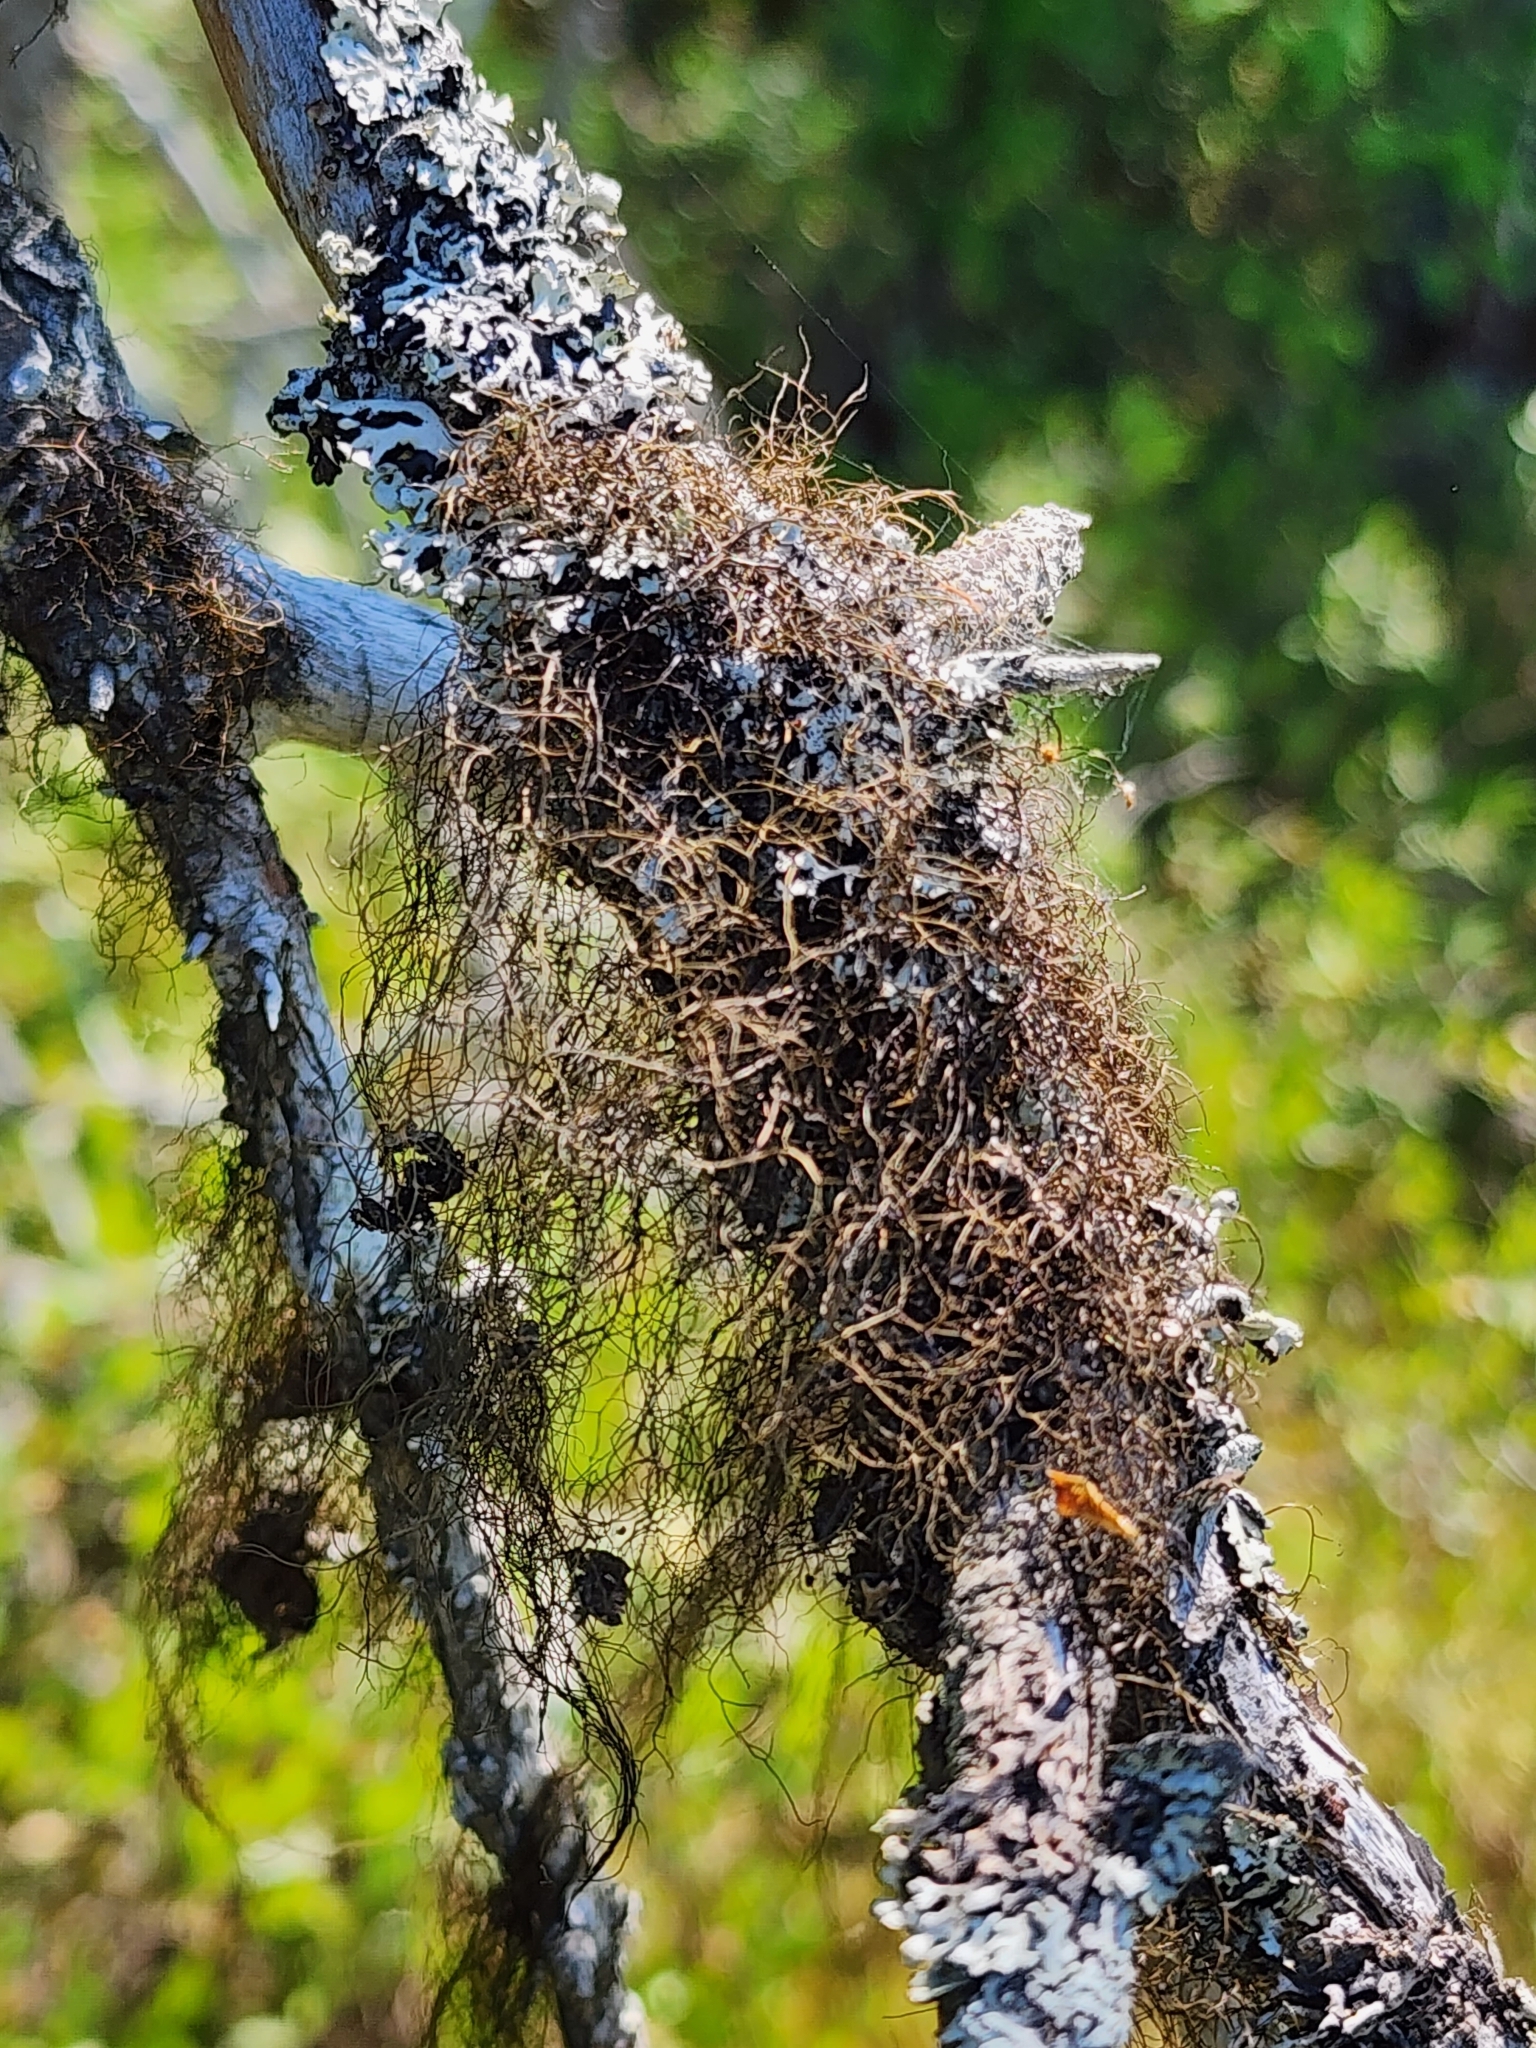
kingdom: Fungi
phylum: Ascomycota
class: Lecanoromycetes
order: Lecanorales
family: Parmeliaceae
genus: Bryoria
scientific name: Bryoria furcellata
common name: Forked hair-lichen
